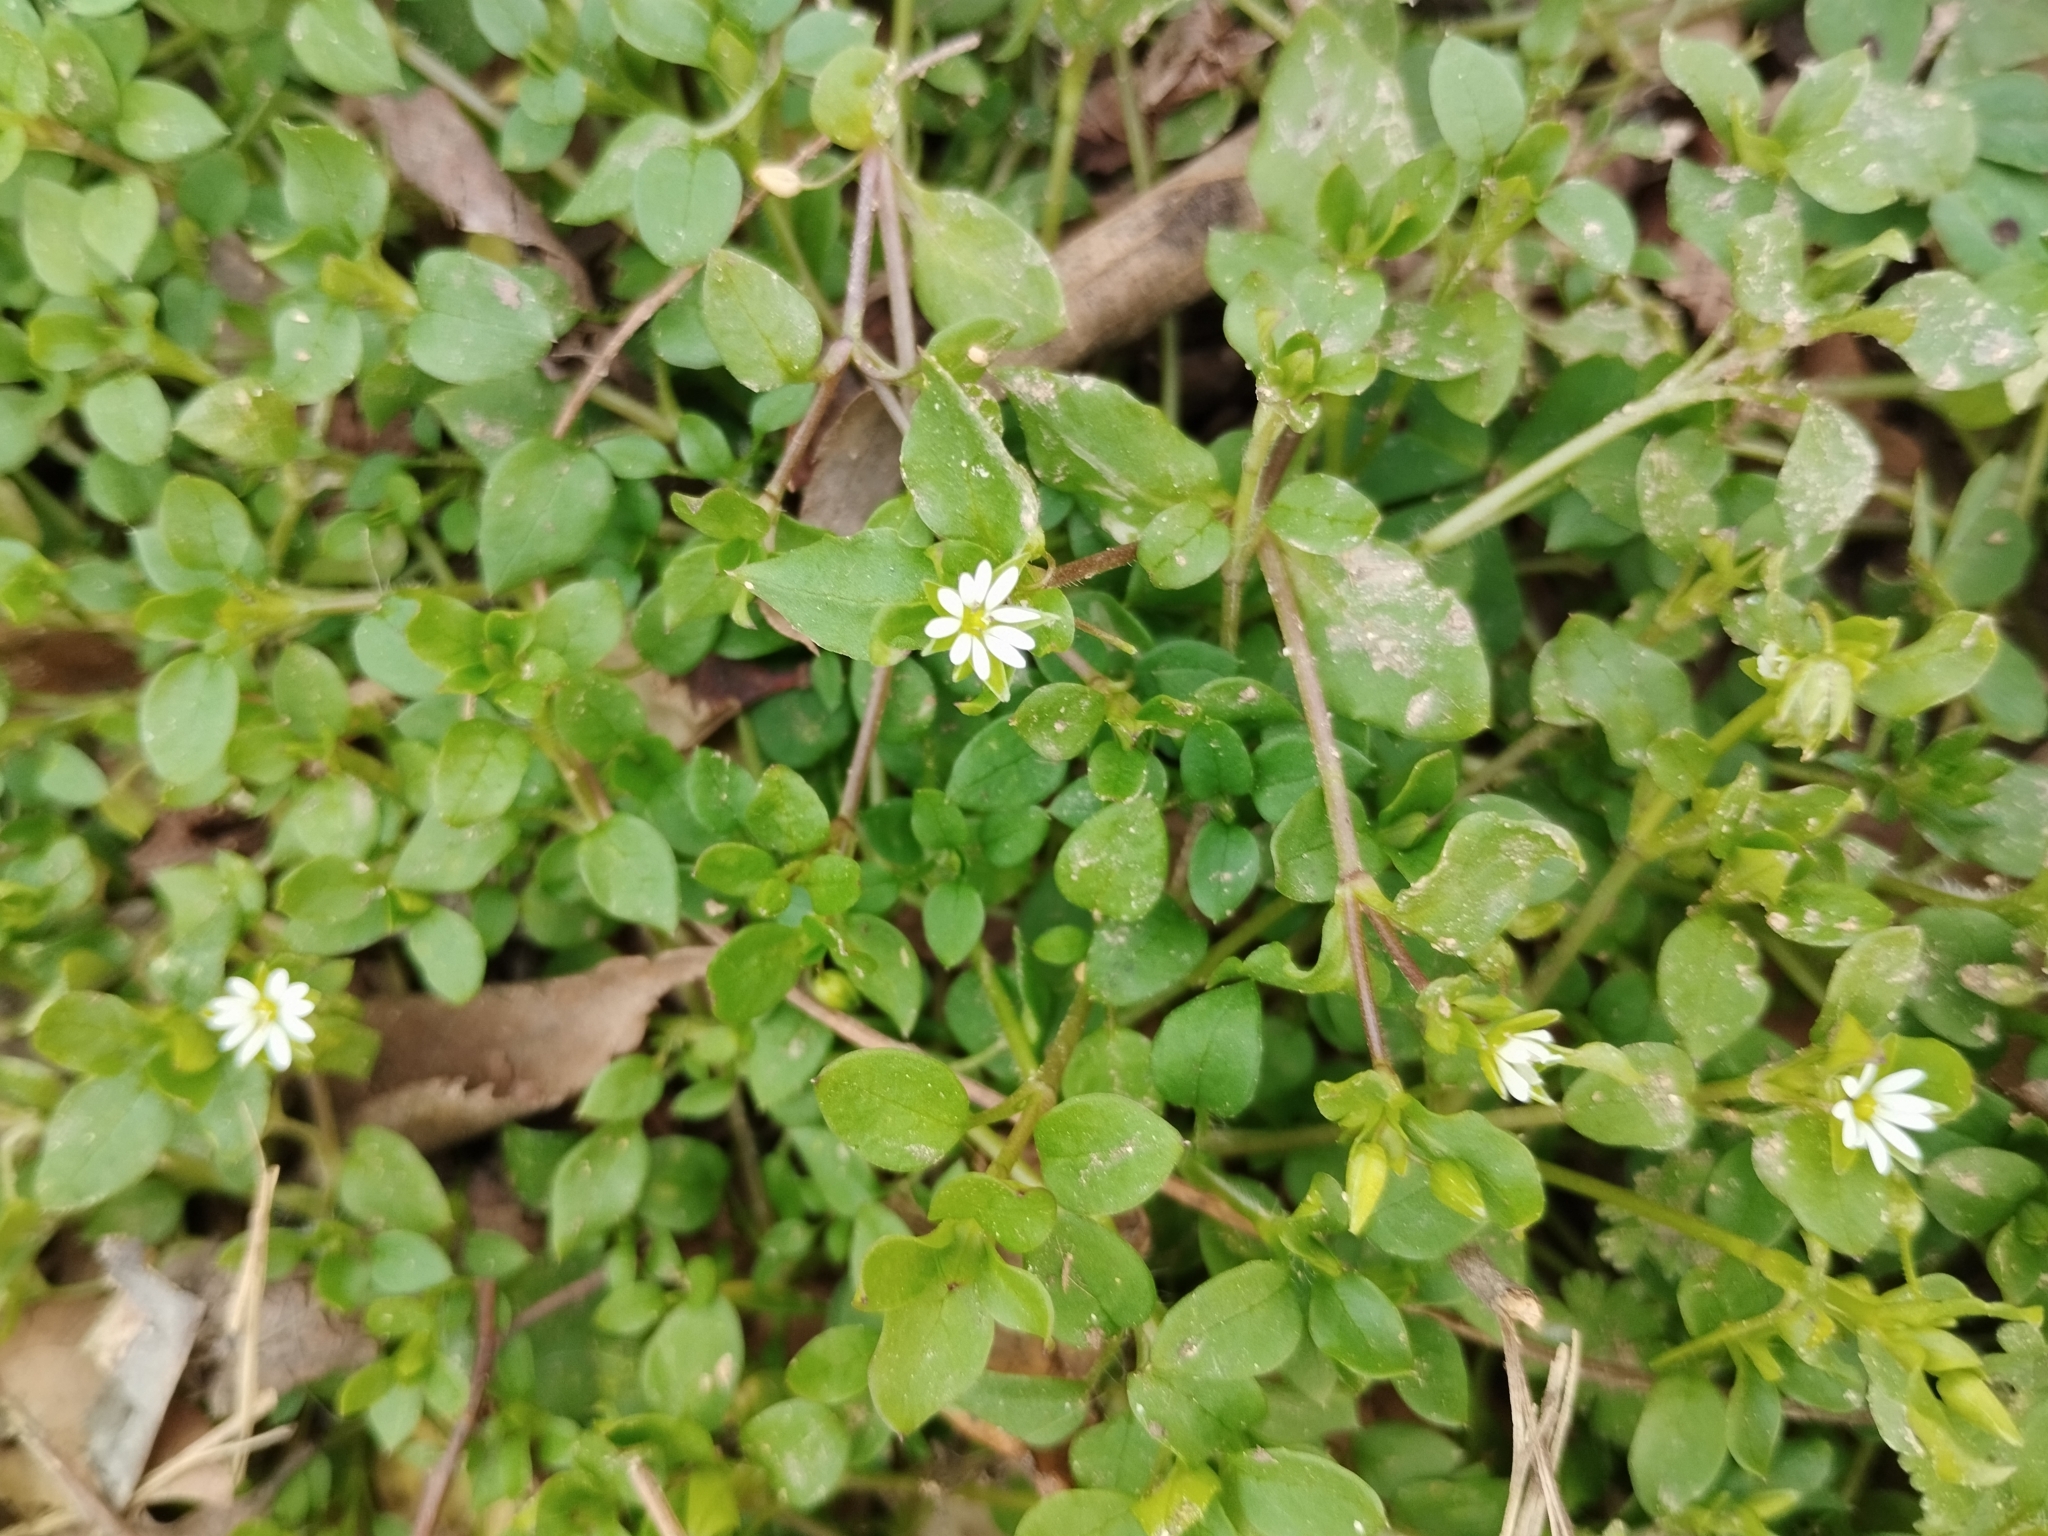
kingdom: Plantae
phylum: Tracheophyta
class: Magnoliopsida
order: Caryophyllales
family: Caryophyllaceae
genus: Stellaria
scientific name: Stellaria media
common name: Common chickweed
